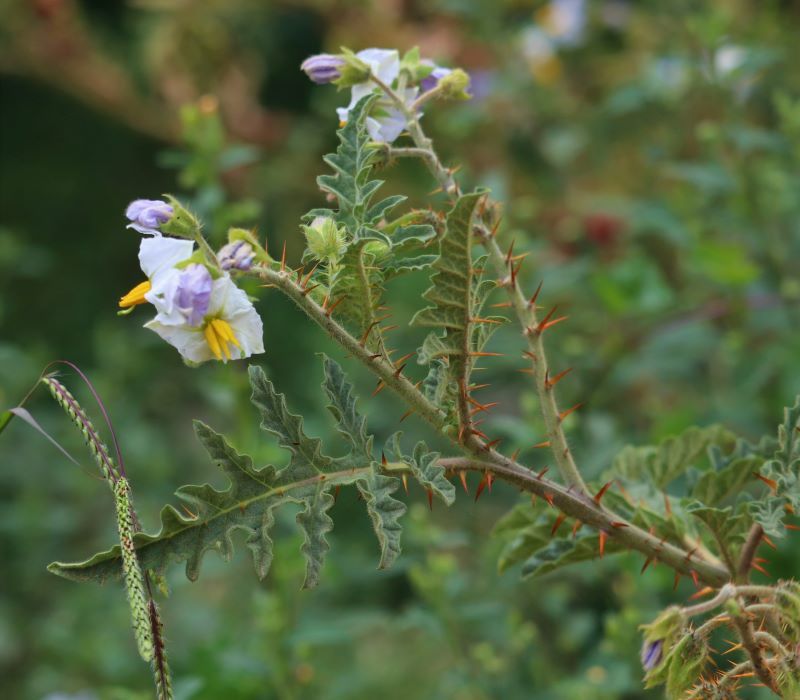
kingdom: Plantae
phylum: Tracheophyta
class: Magnoliopsida
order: Solanales
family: Solanaceae
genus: Solanum
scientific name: Solanum sisymbriifolium
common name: Red buffalo-bur
